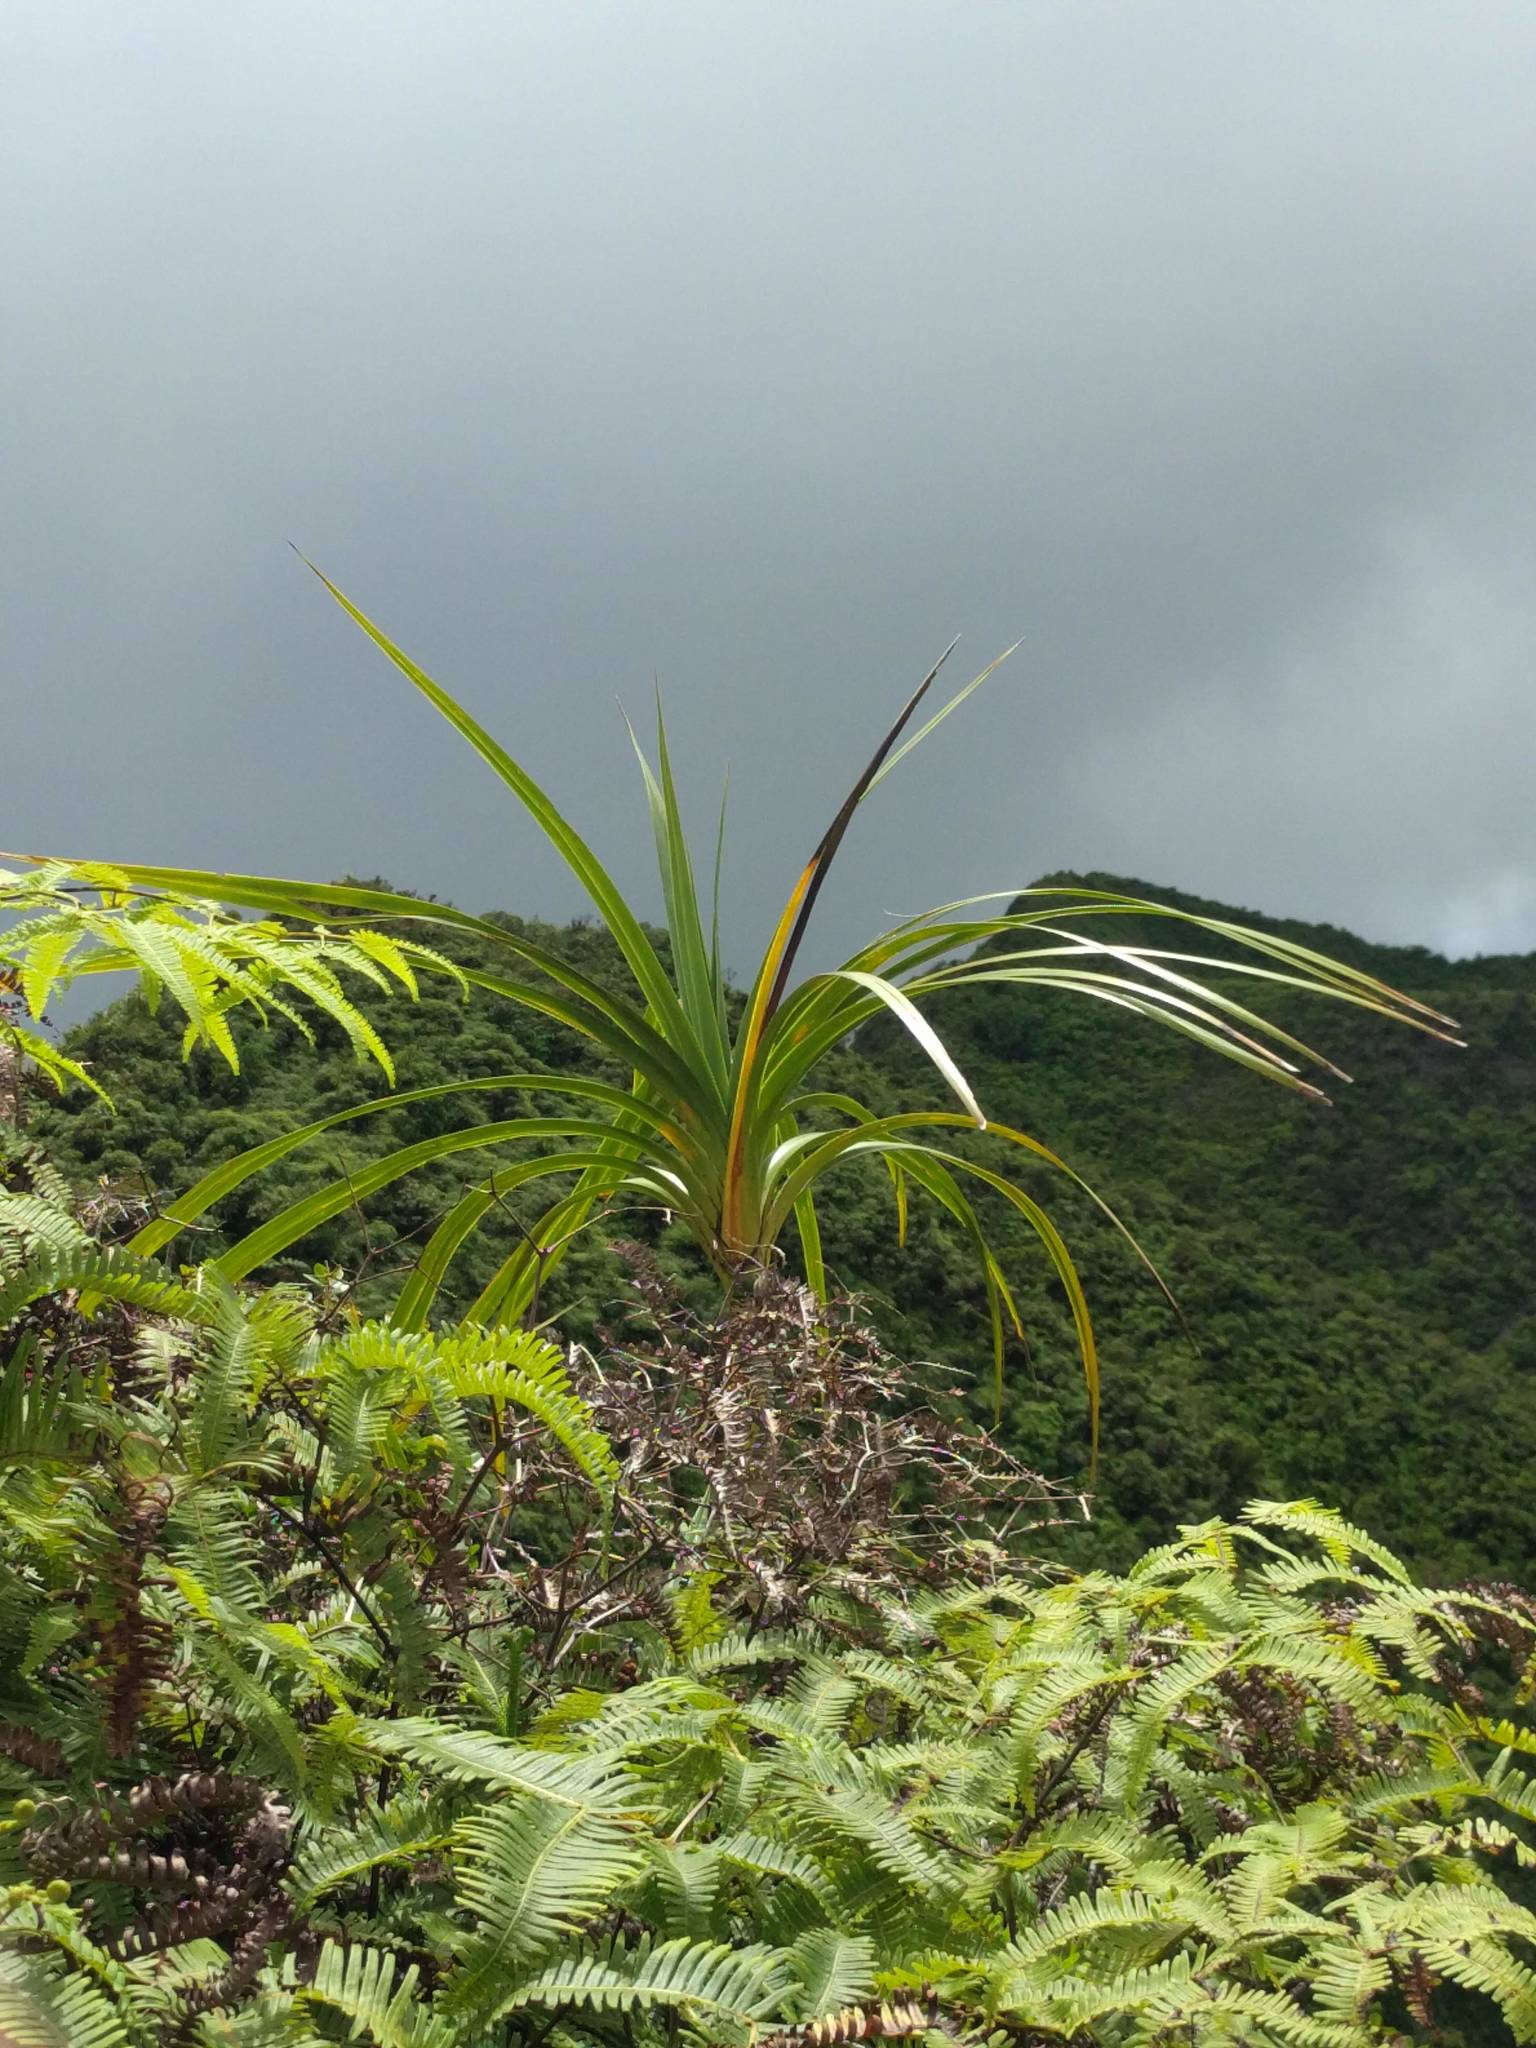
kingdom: Plantae
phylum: Tracheophyta
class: Liliopsida
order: Pandanales
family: Pandanaceae
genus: Freycinetia
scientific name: Freycinetia arborea
